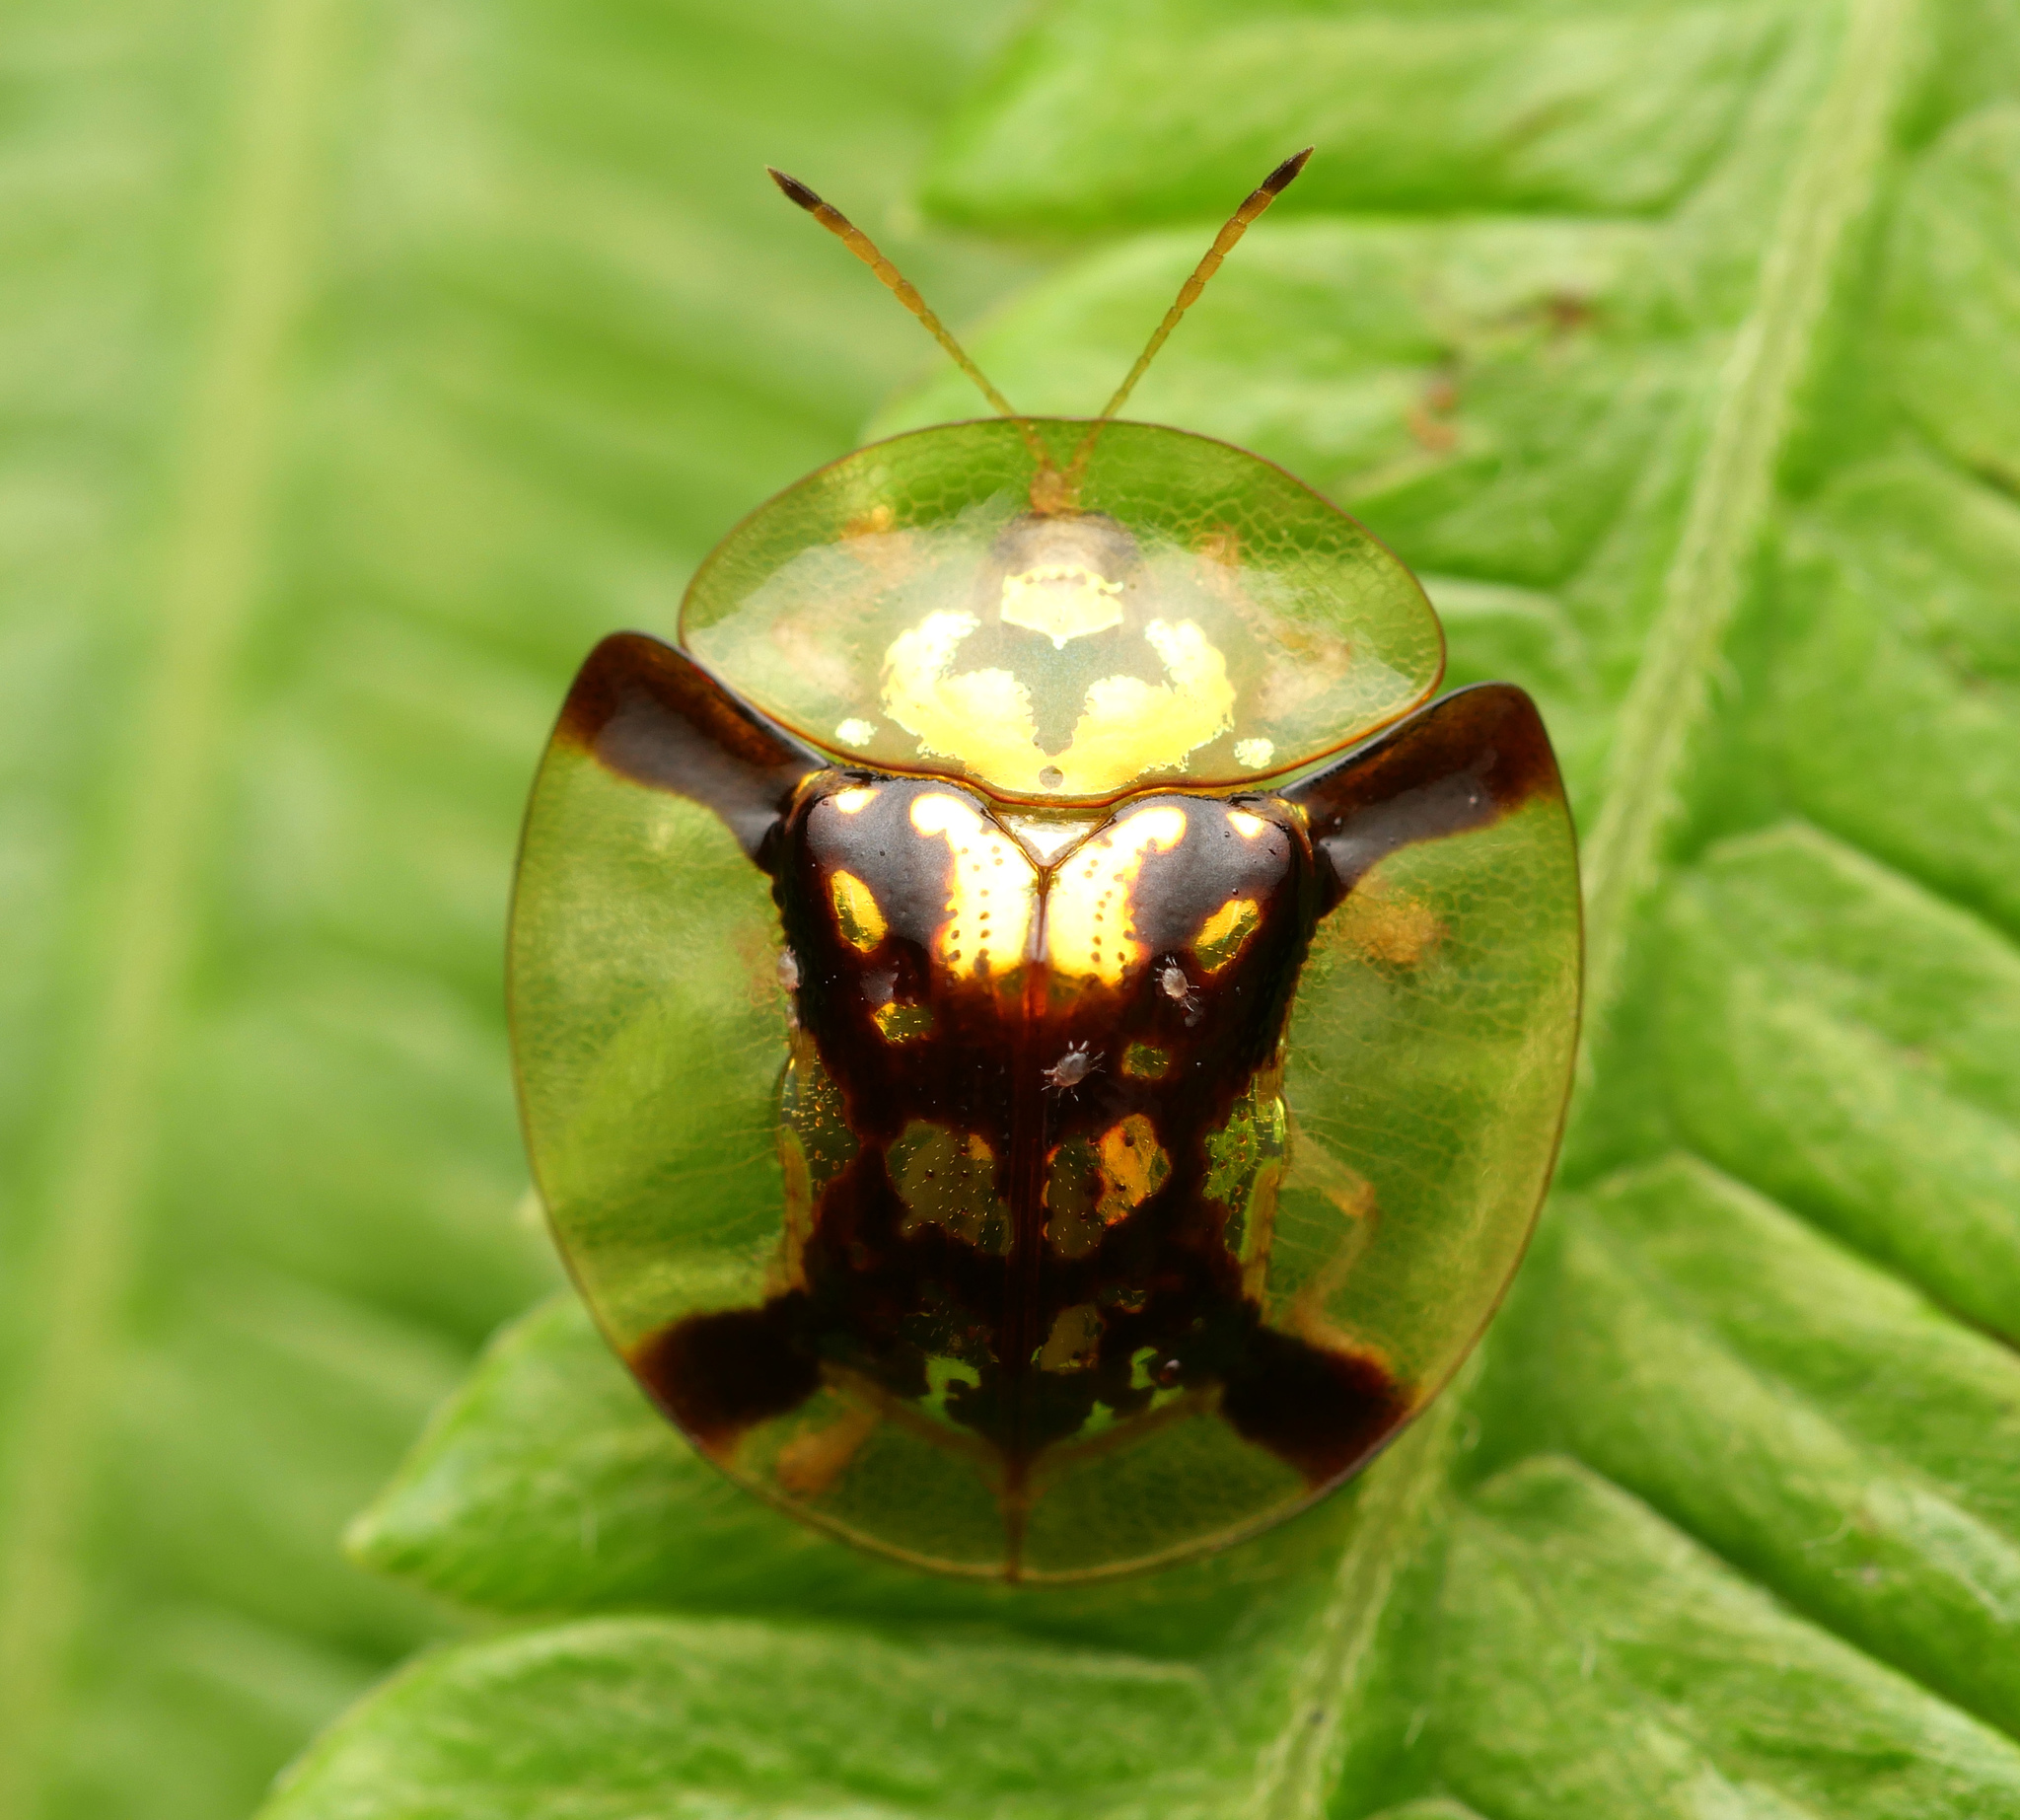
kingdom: Animalia
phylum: Arthropoda
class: Insecta
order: Coleoptera
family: Chrysomelidae
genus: Aspidimorpha
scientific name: Aspidimorpha aurata
